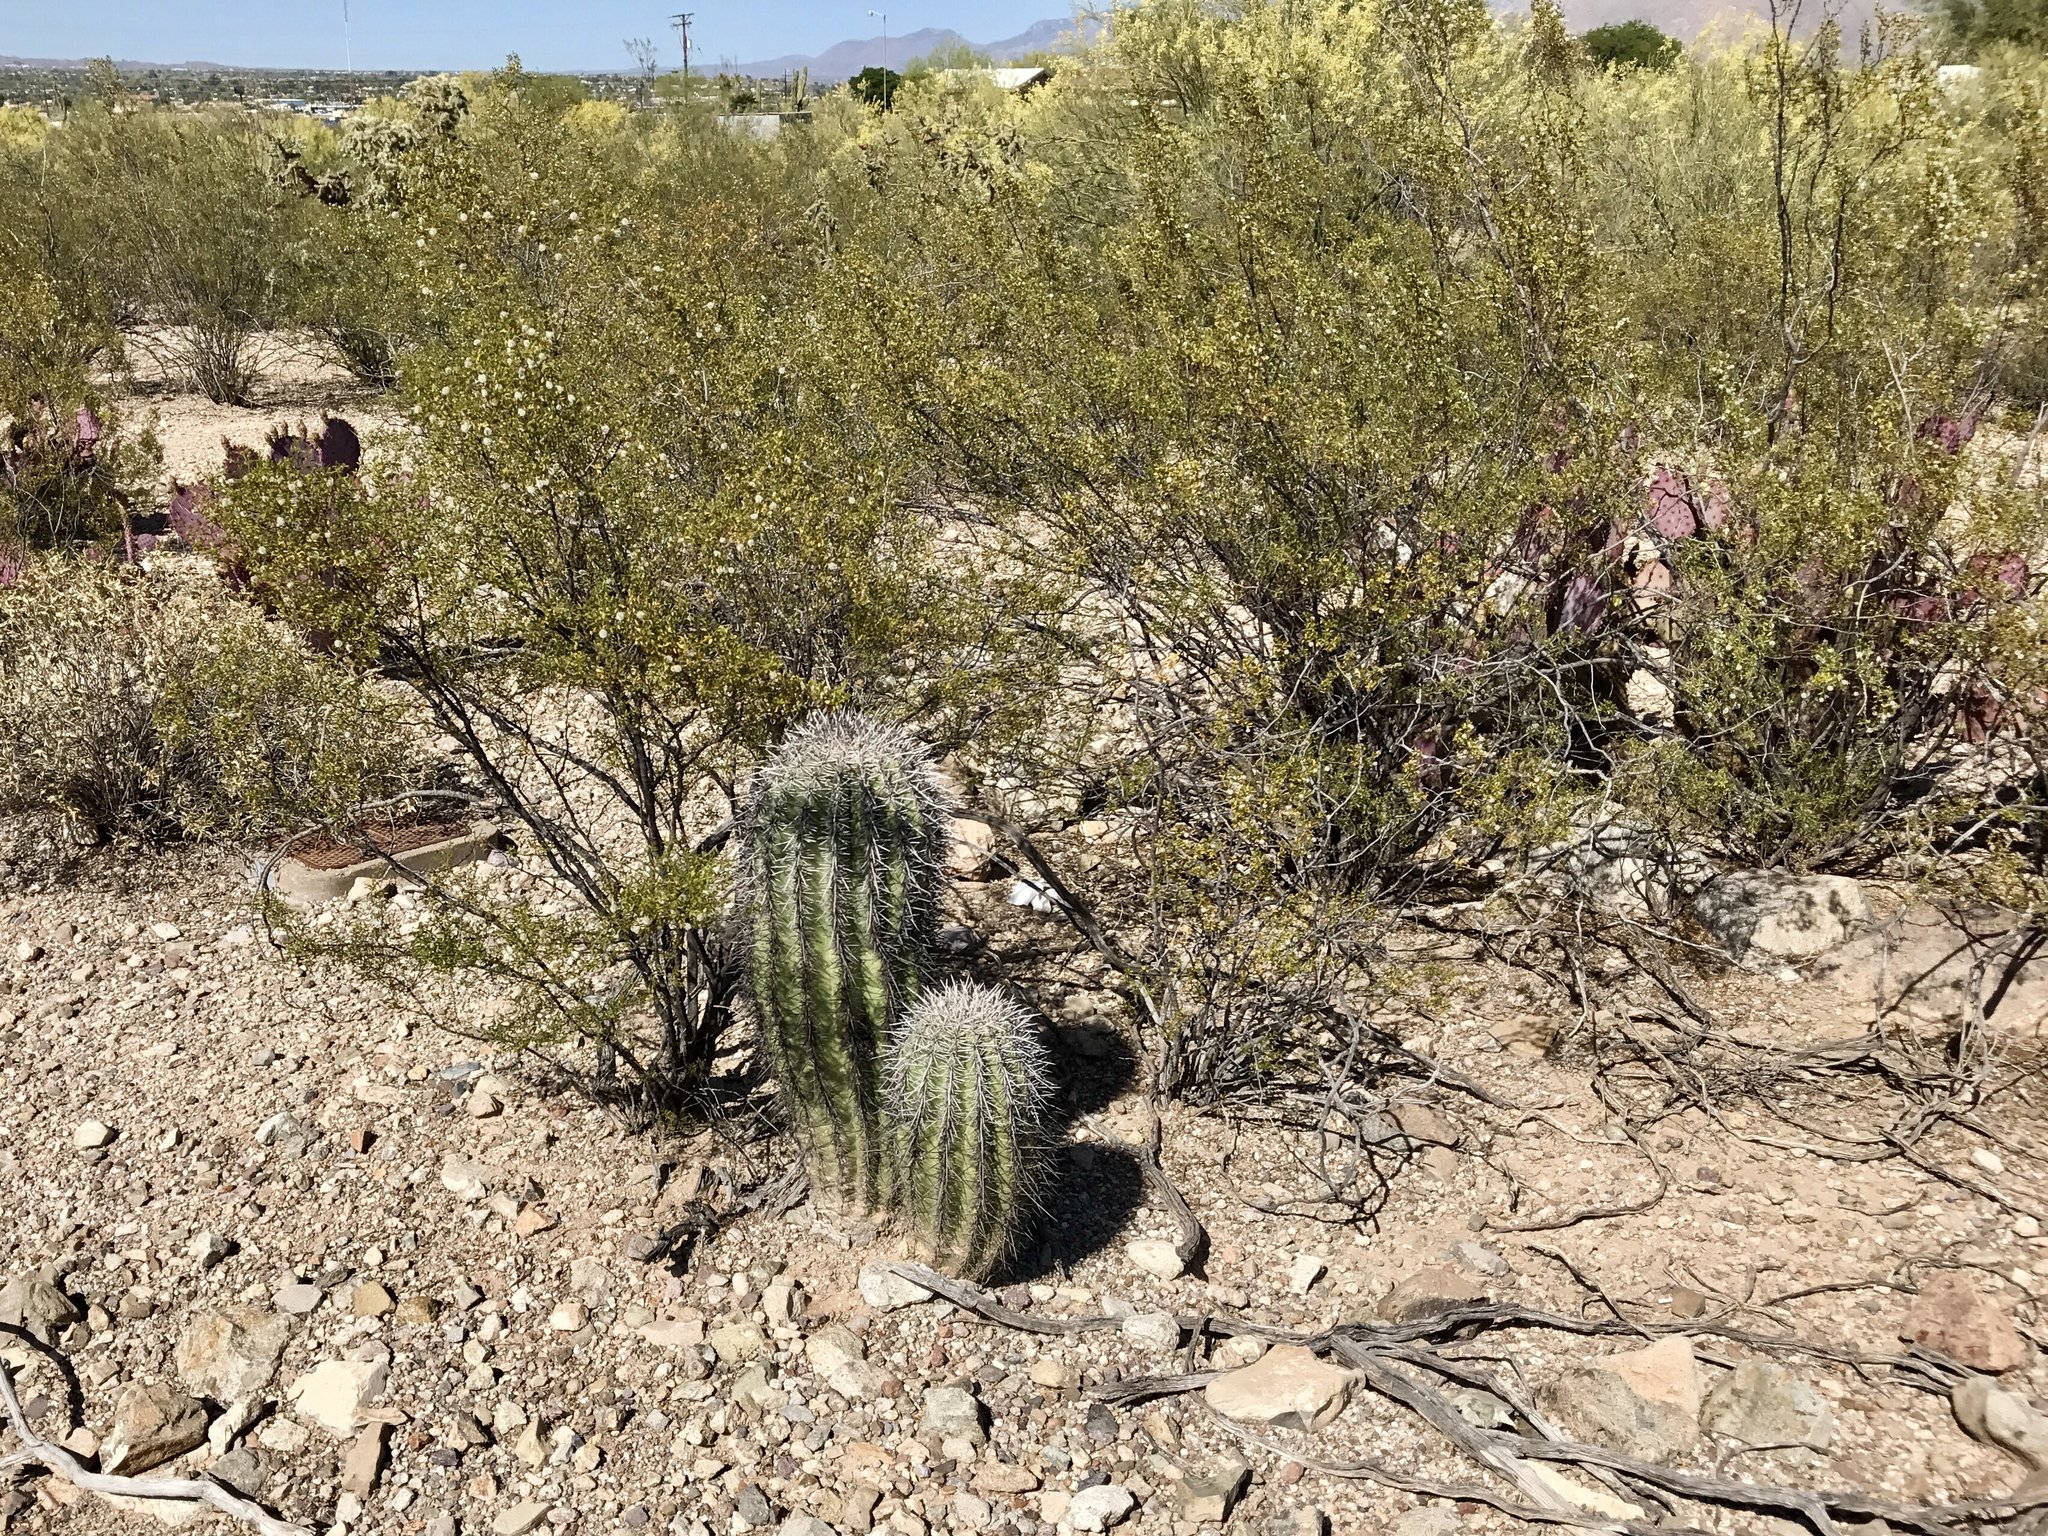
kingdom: Plantae
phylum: Tracheophyta
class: Magnoliopsida
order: Caryophyllales
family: Cactaceae
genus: Carnegiea
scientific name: Carnegiea gigantea
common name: Saguaro
